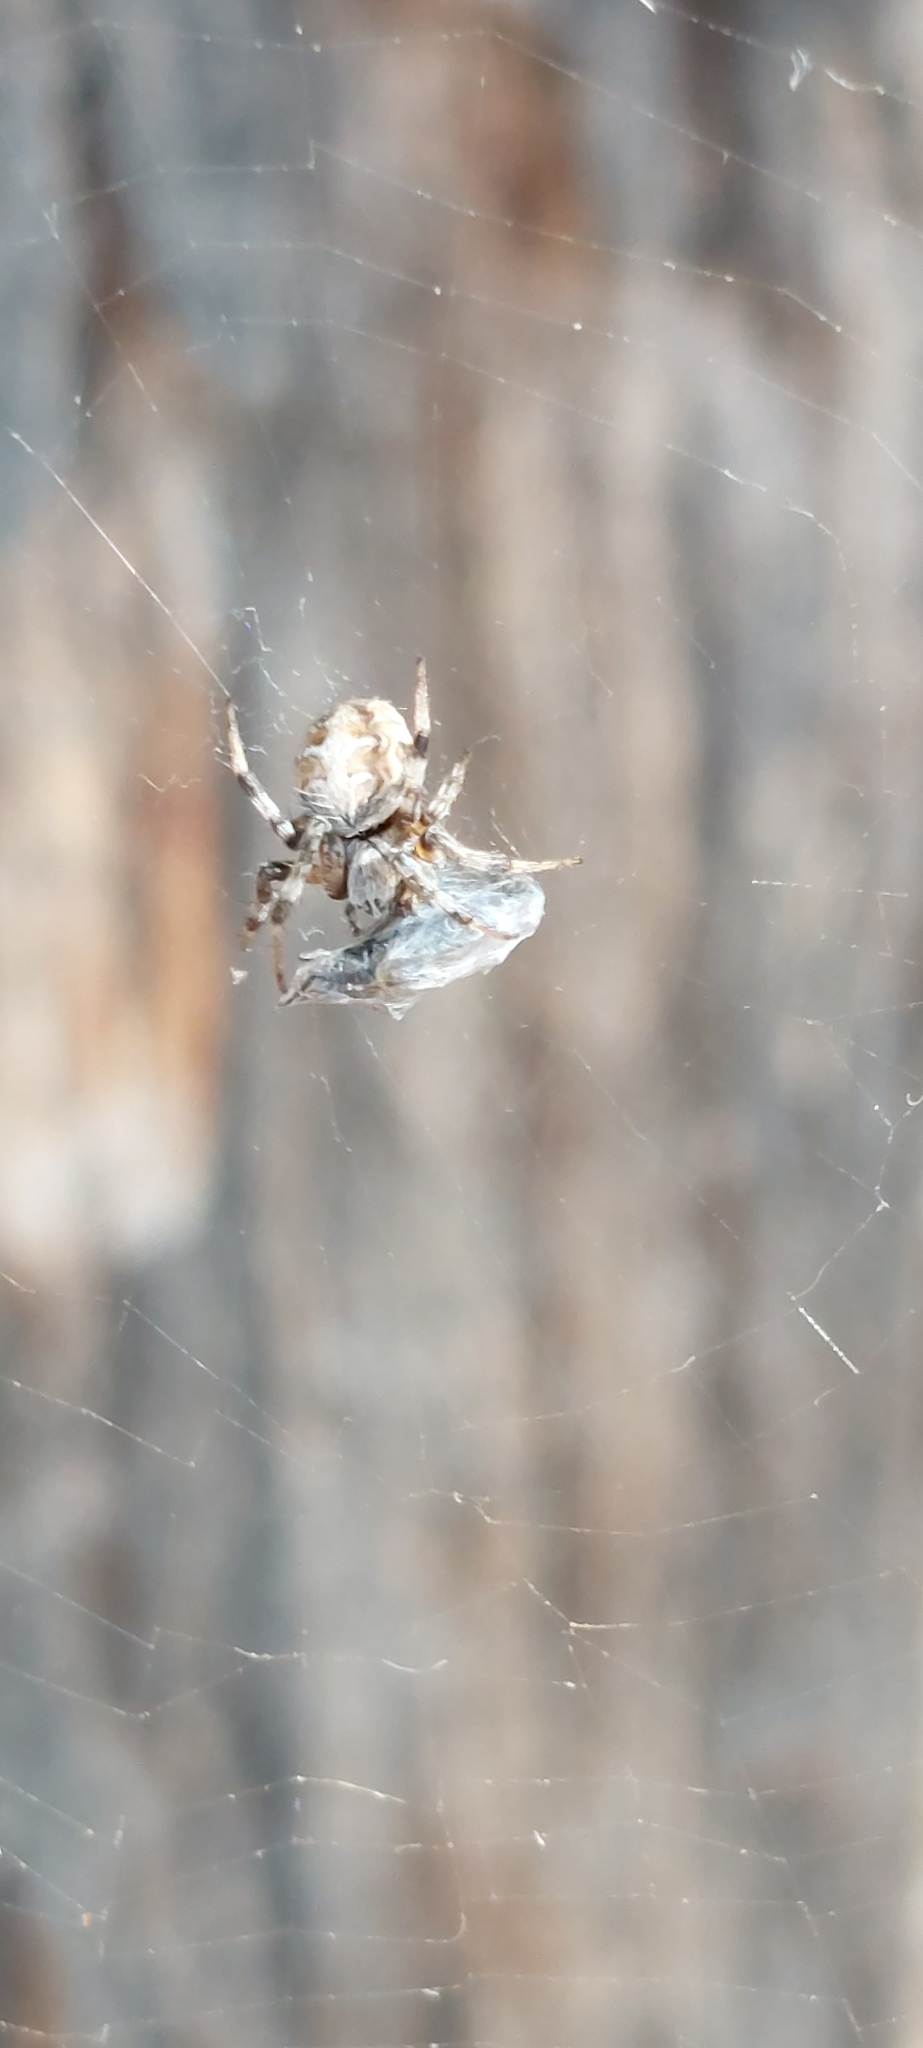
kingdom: Animalia
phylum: Arthropoda
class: Arachnida
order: Araneae
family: Araneidae
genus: Metepeira
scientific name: Metepeira
